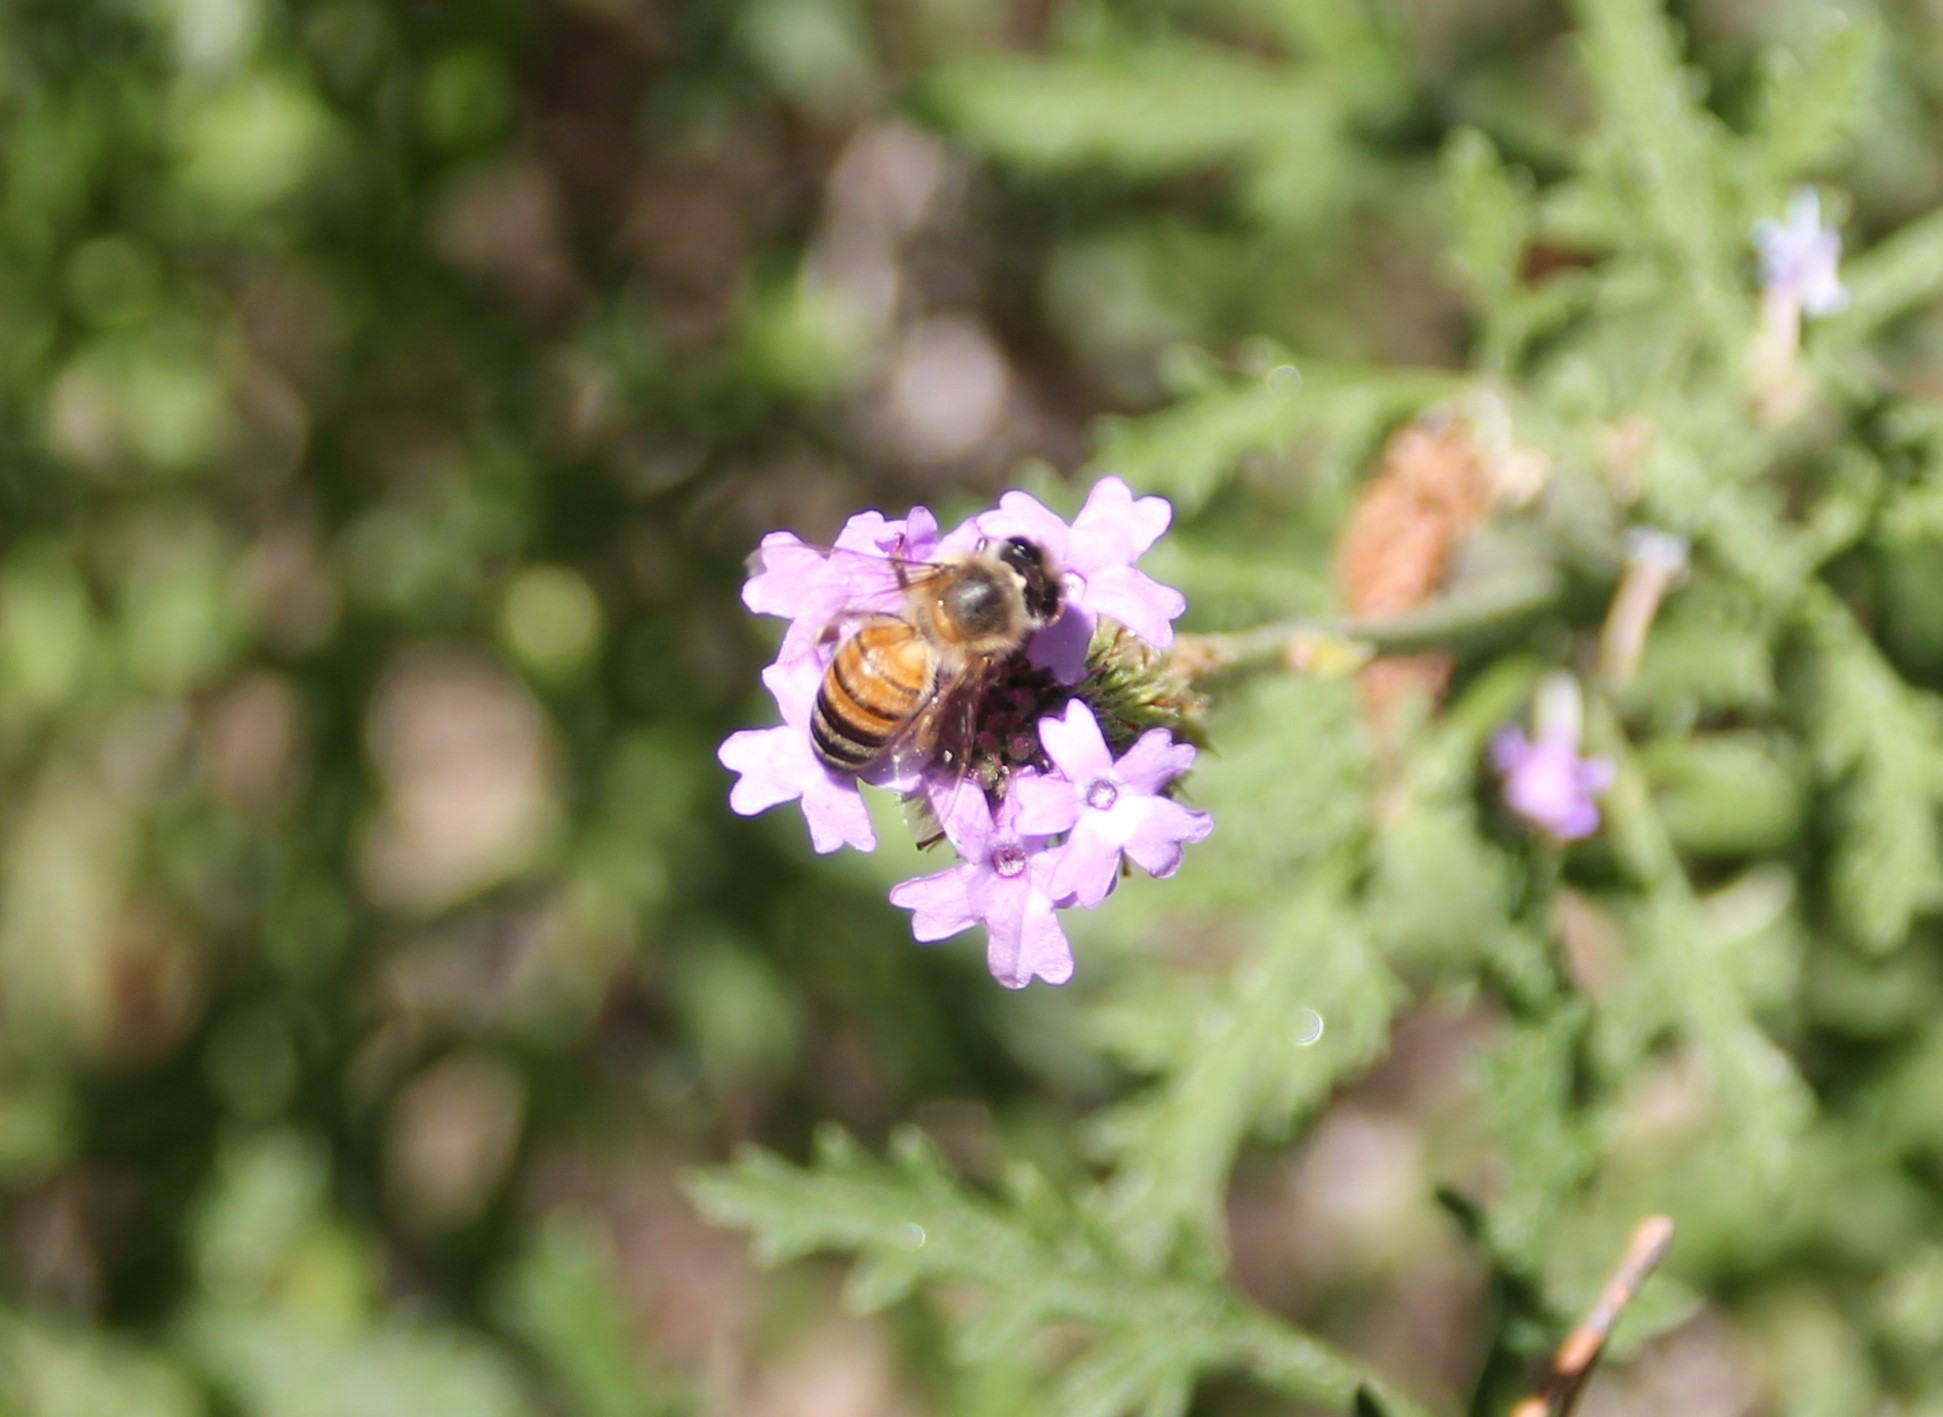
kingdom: Animalia
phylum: Arthropoda
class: Insecta
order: Hymenoptera
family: Apidae
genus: Apis
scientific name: Apis mellifera
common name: Honey bee
